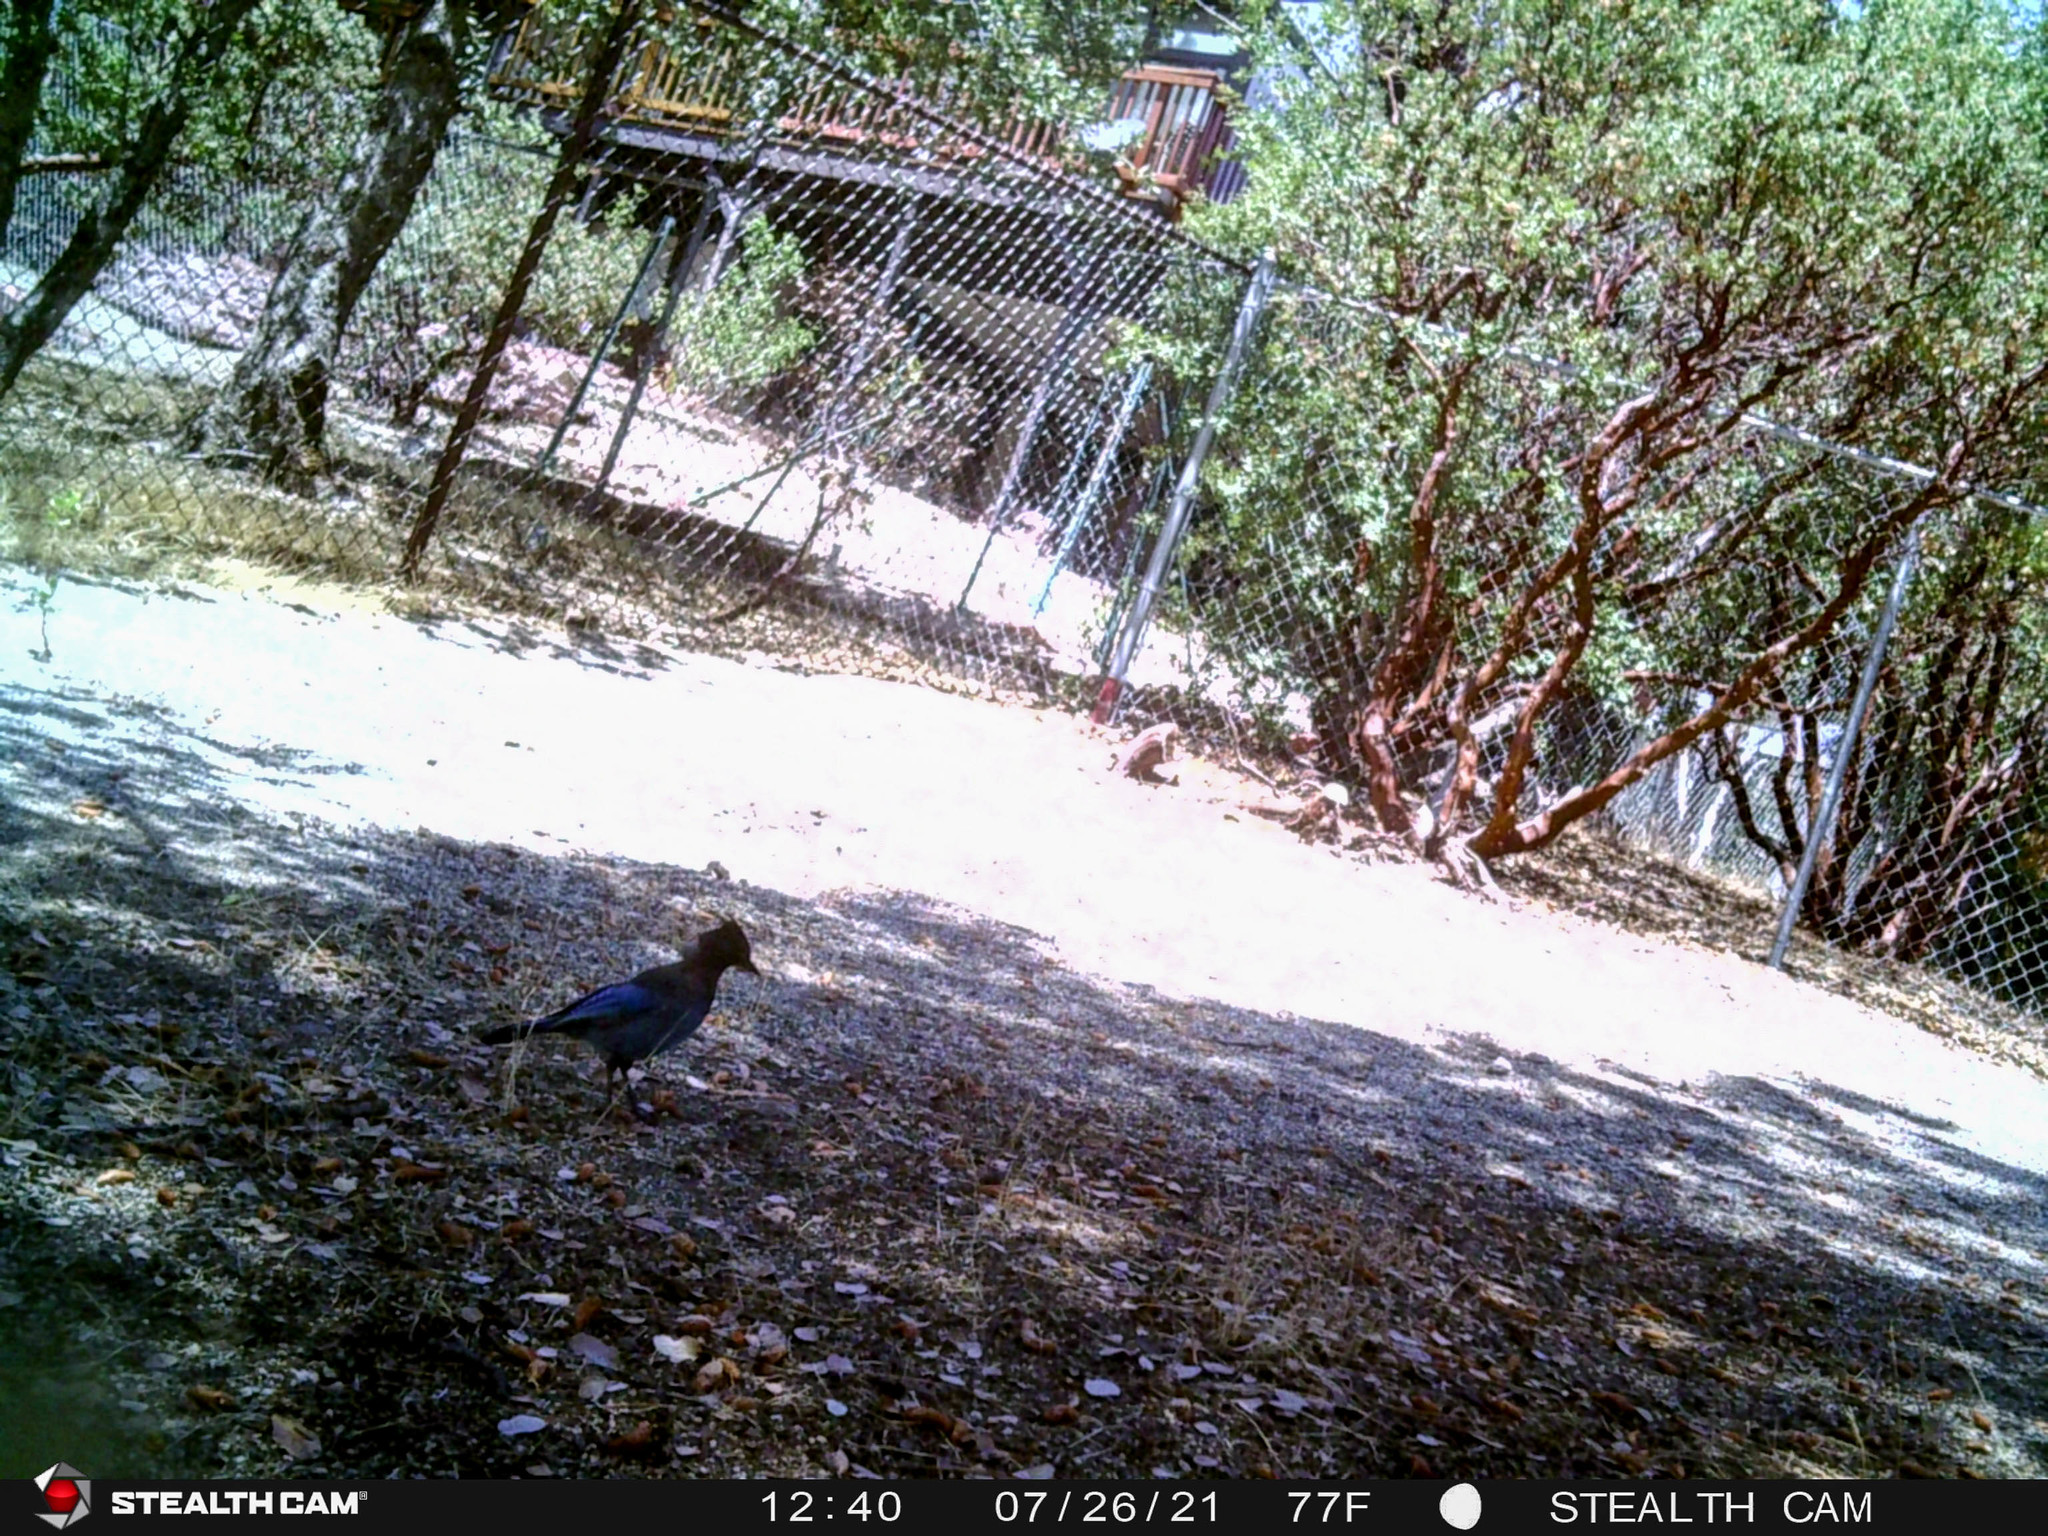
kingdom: Animalia
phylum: Chordata
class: Aves
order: Passeriformes
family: Corvidae
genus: Cyanocitta
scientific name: Cyanocitta stelleri
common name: Steller's jay
